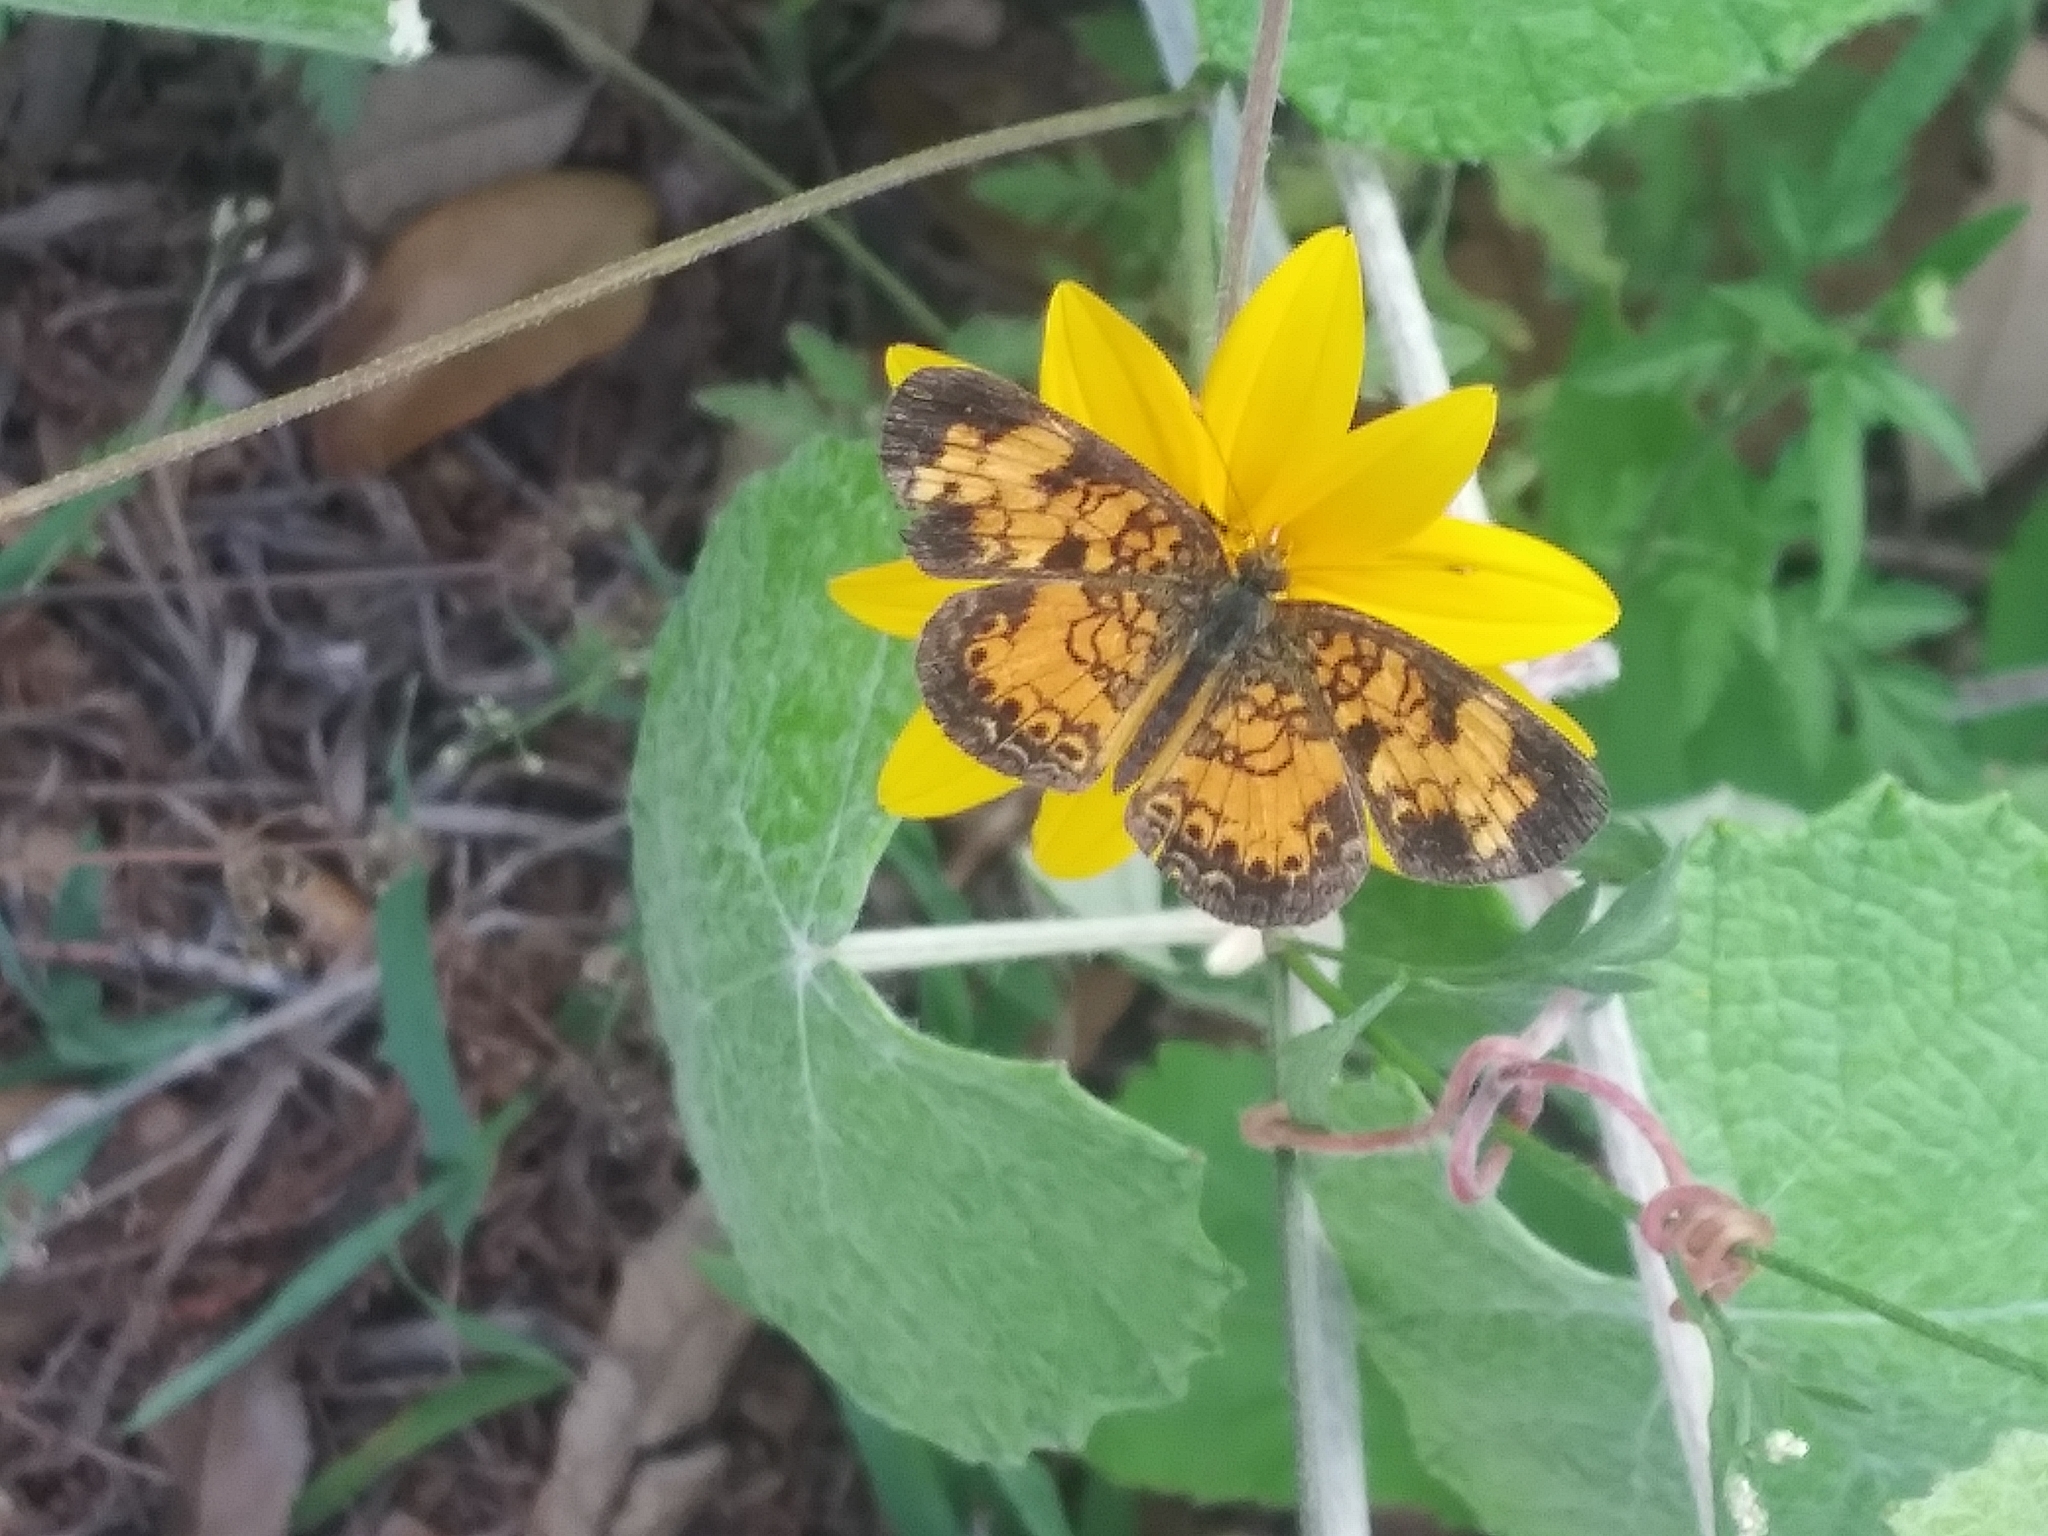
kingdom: Animalia
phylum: Arthropoda
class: Insecta
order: Lepidoptera
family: Nymphalidae
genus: Phyciodes
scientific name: Phyciodes tharos
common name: Pearl crescent
